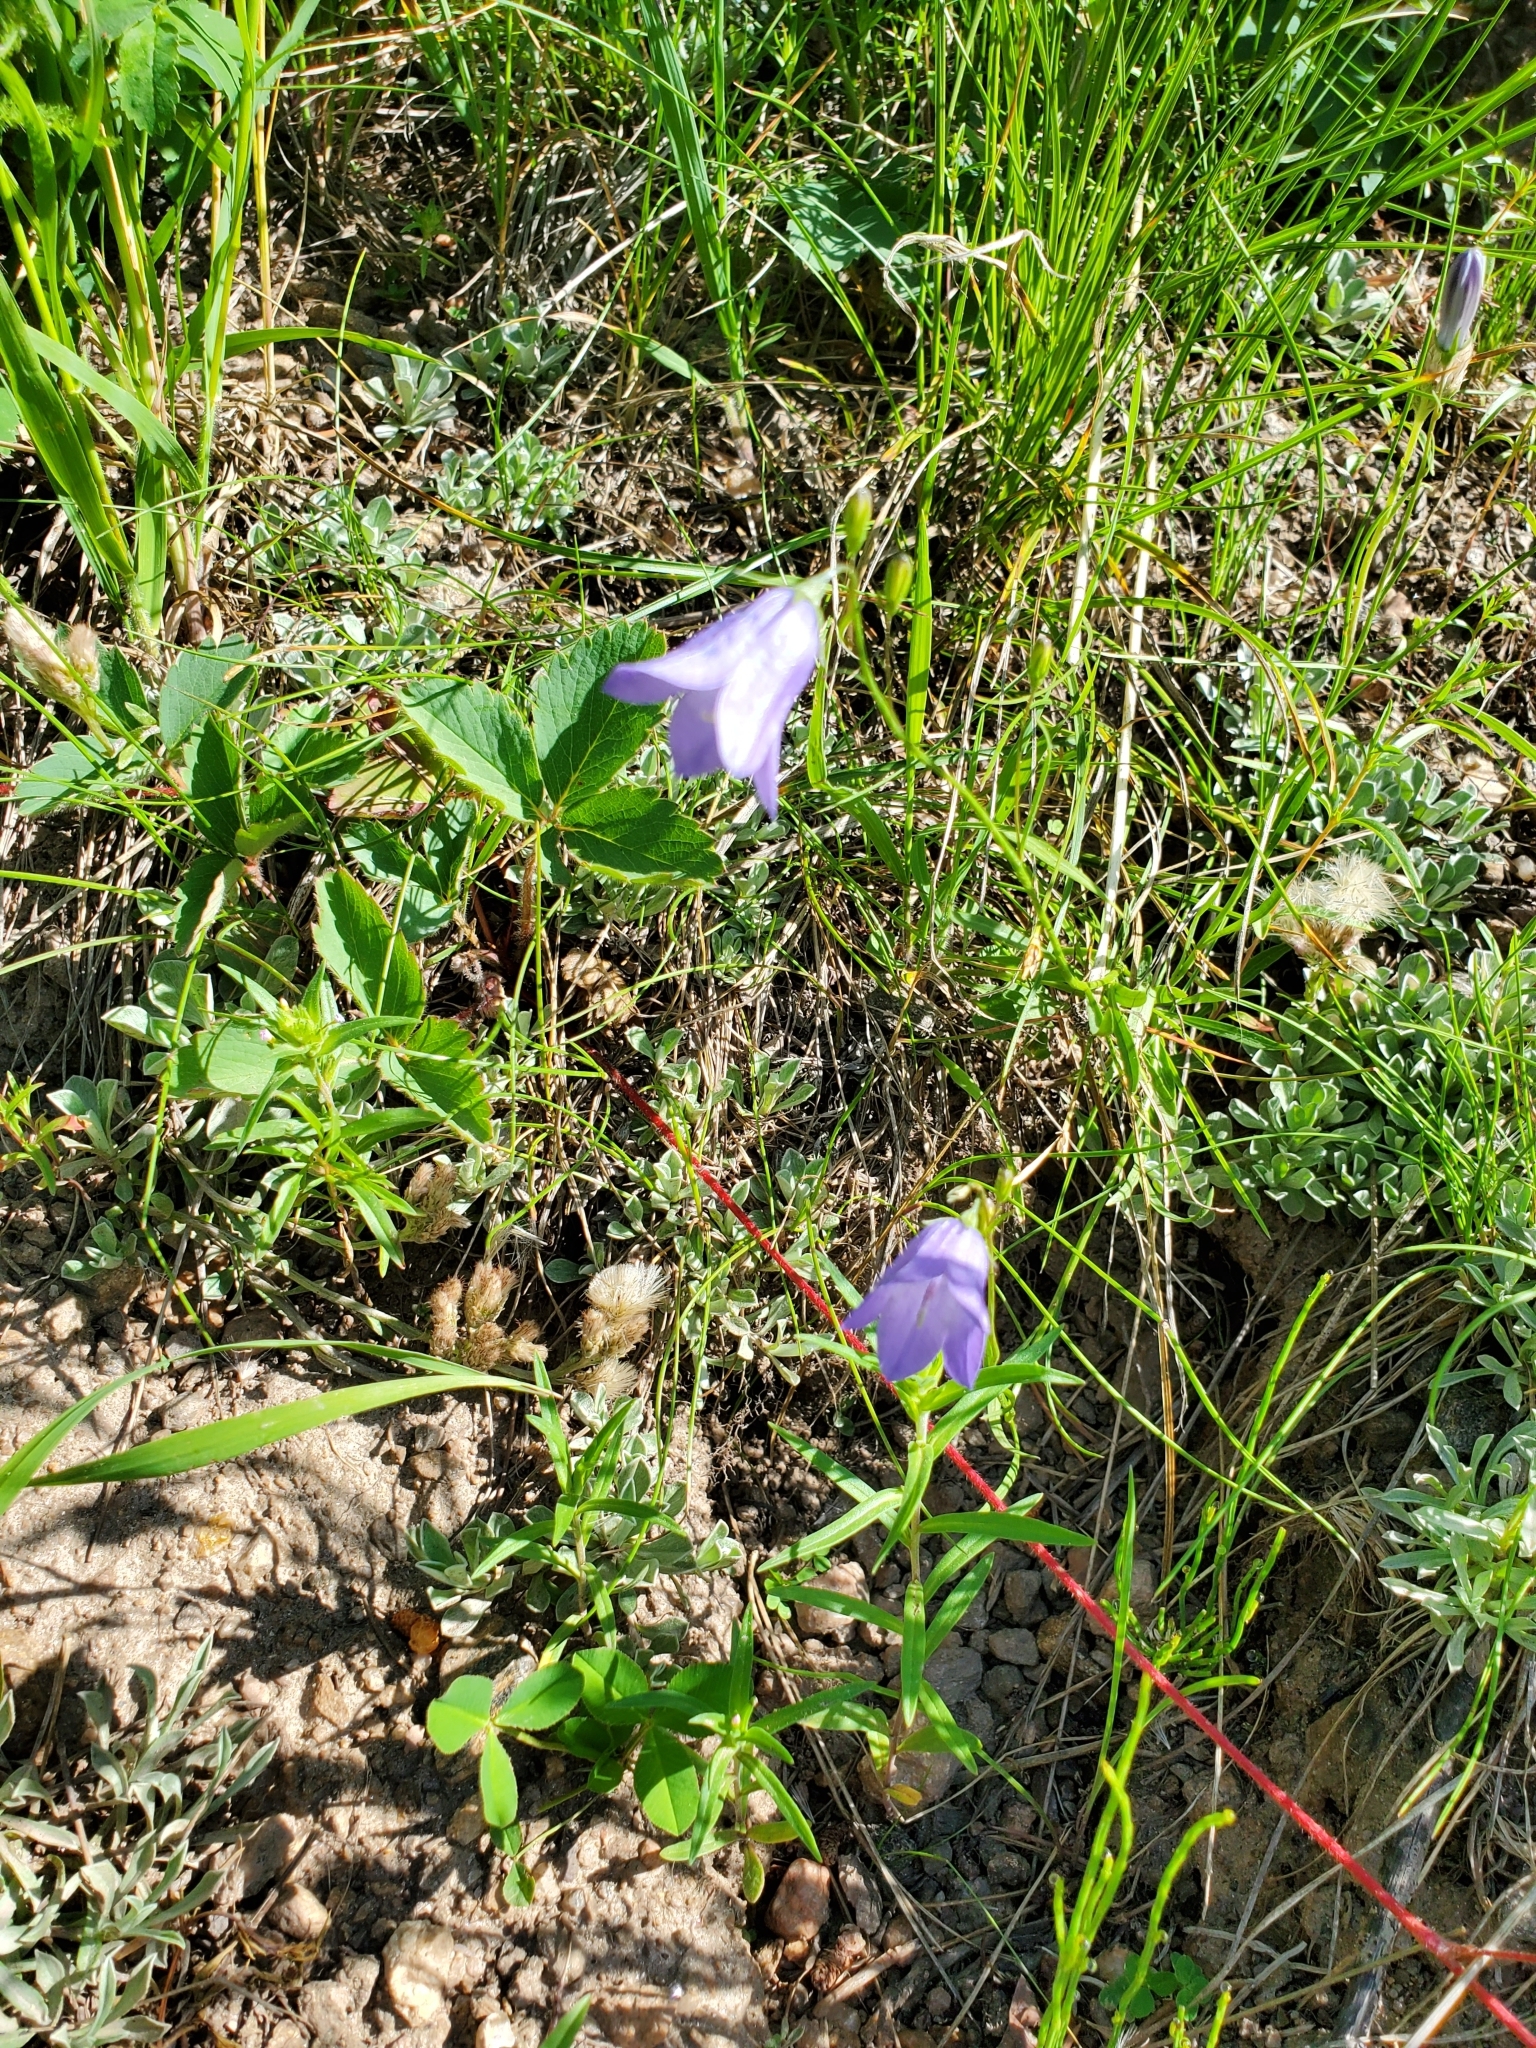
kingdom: Plantae
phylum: Tracheophyta
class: Magnoliopsida
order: Asterales
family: Campanulaceae
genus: Campanula
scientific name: Campanula petiolata
